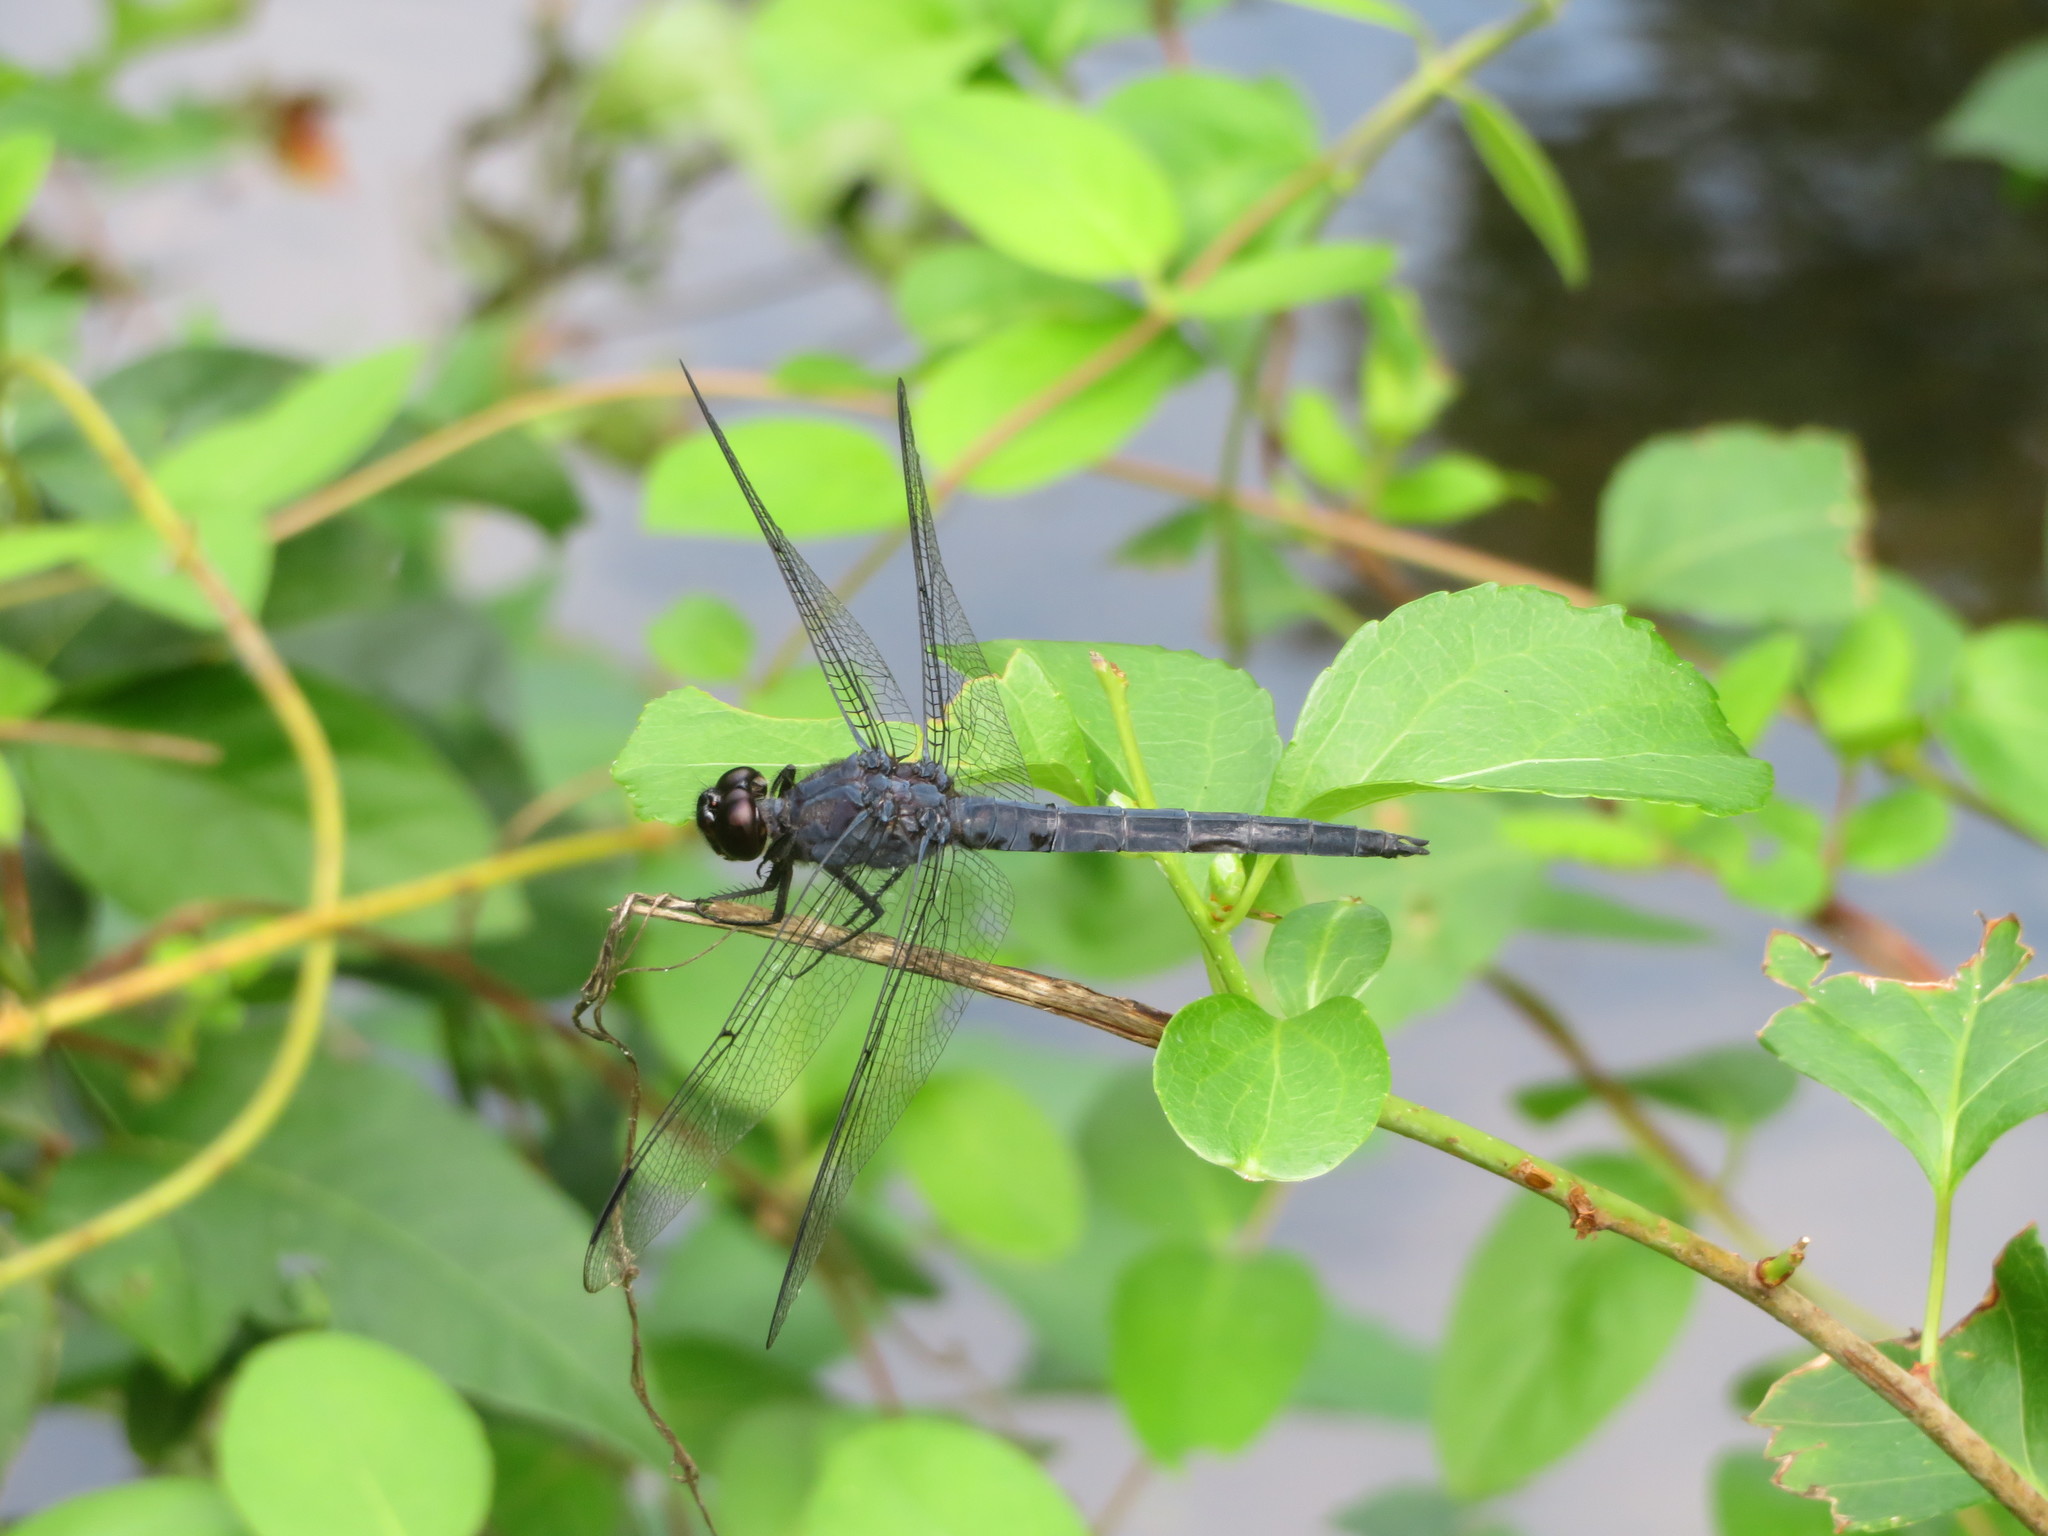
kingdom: Animalia
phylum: Arthropoda
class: Insecta
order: Odonata
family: Libellulidae
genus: Libellula
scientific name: Libellula incesta
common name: Slaty skimmer
